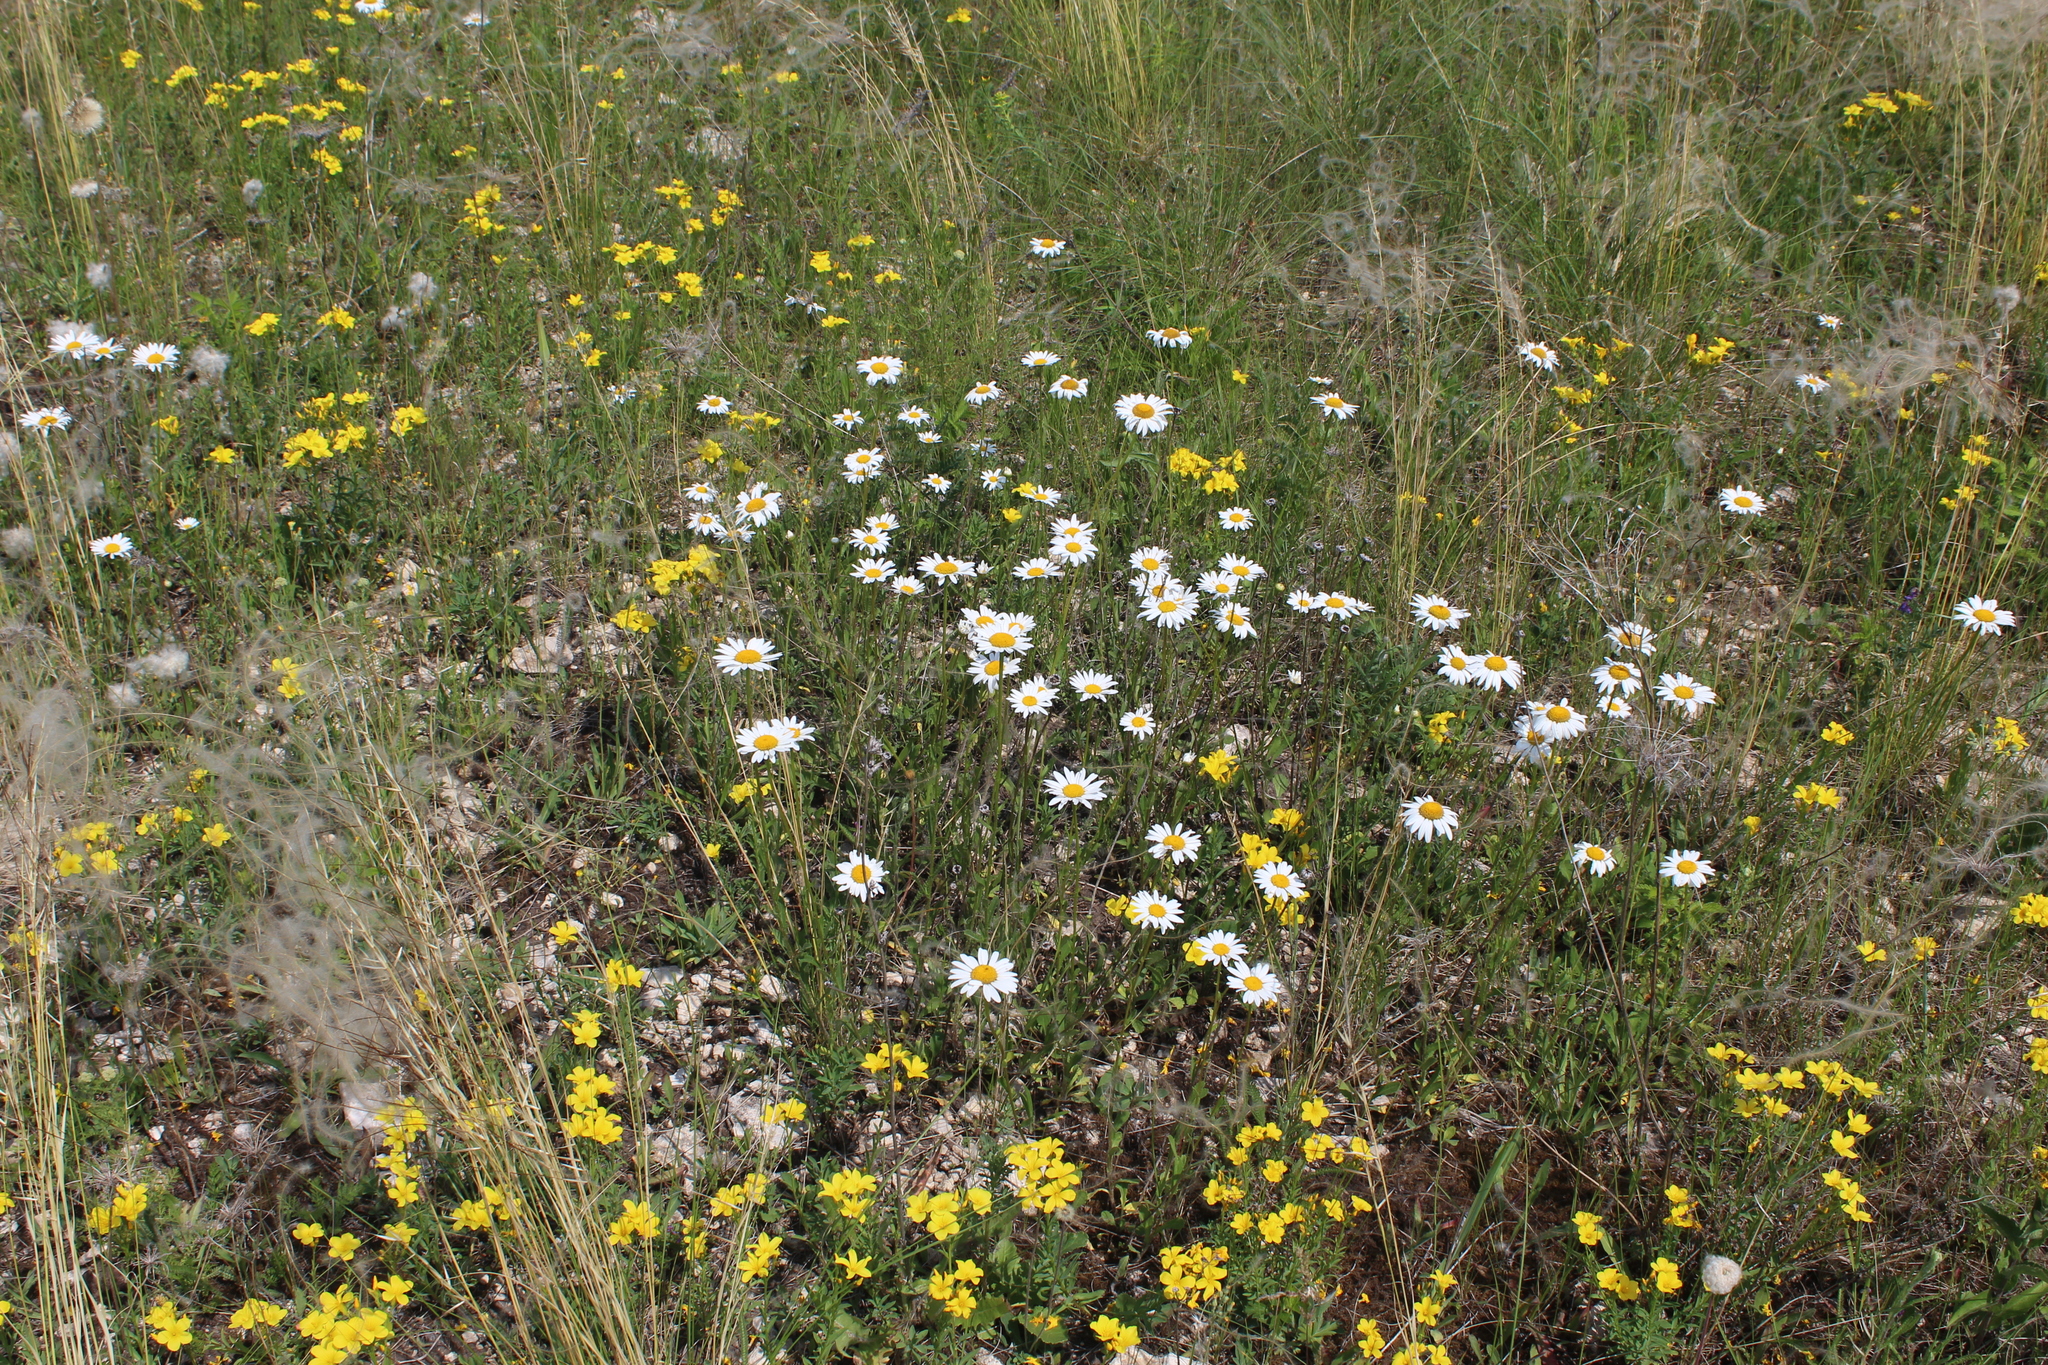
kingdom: Plantae
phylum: Tracheophyta
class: Magnoliopsida
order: Asterales
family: Asteraceae
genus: Leucanthemum
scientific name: Leucanthemum vulgare
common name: Oxeye daisy
